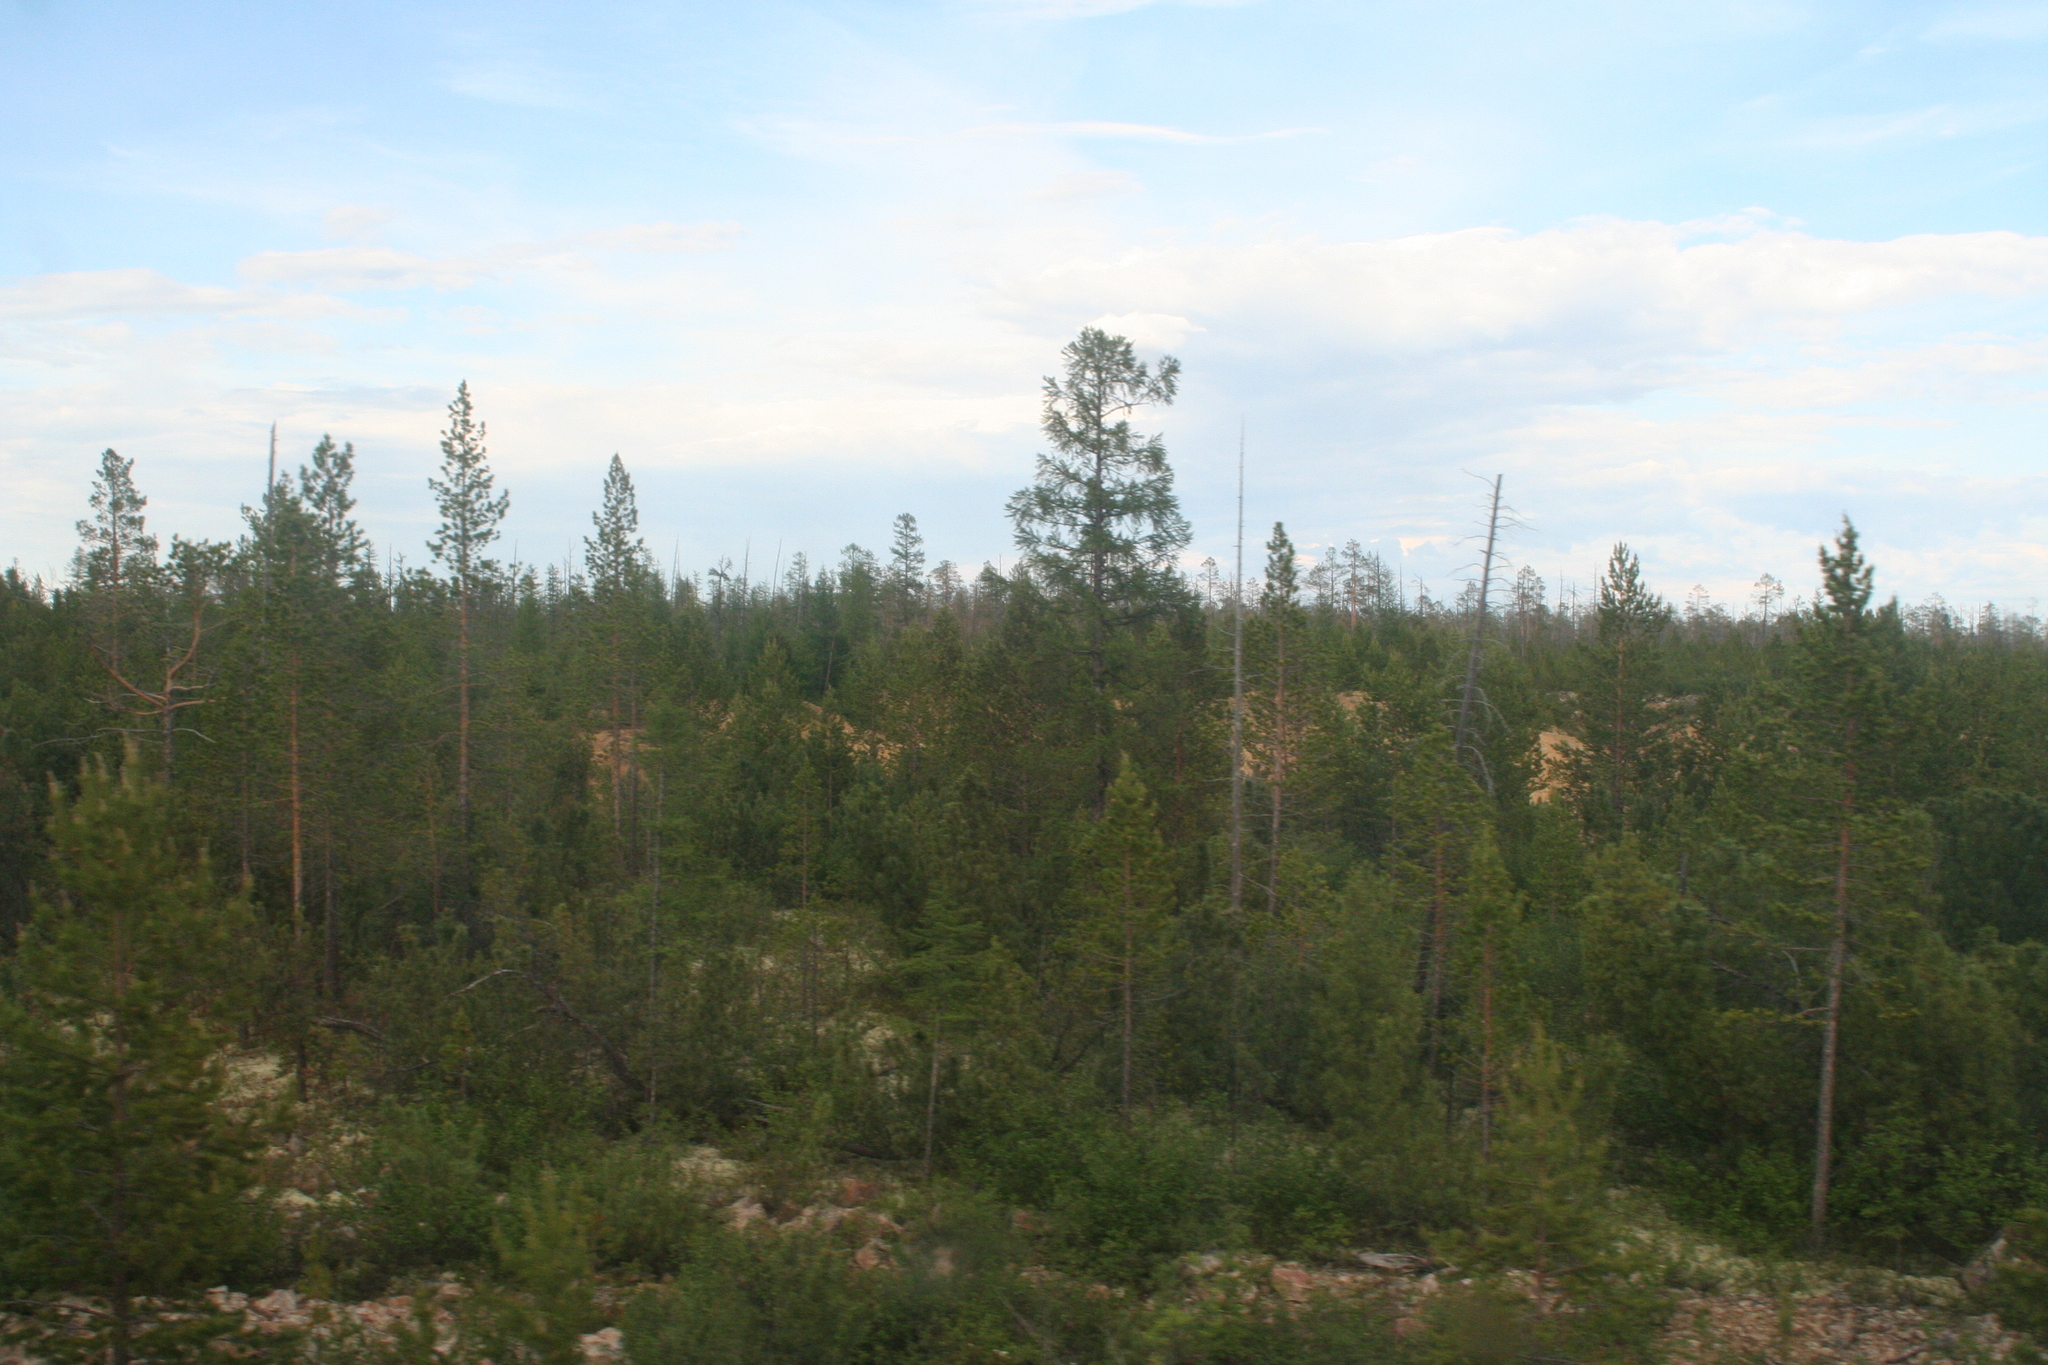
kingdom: Plantae
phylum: Tracheophyta
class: Pinopsida
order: Pinales
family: Pinaceae
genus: Pinus
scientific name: Pinus pumila
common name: Dwarf siberian pine
